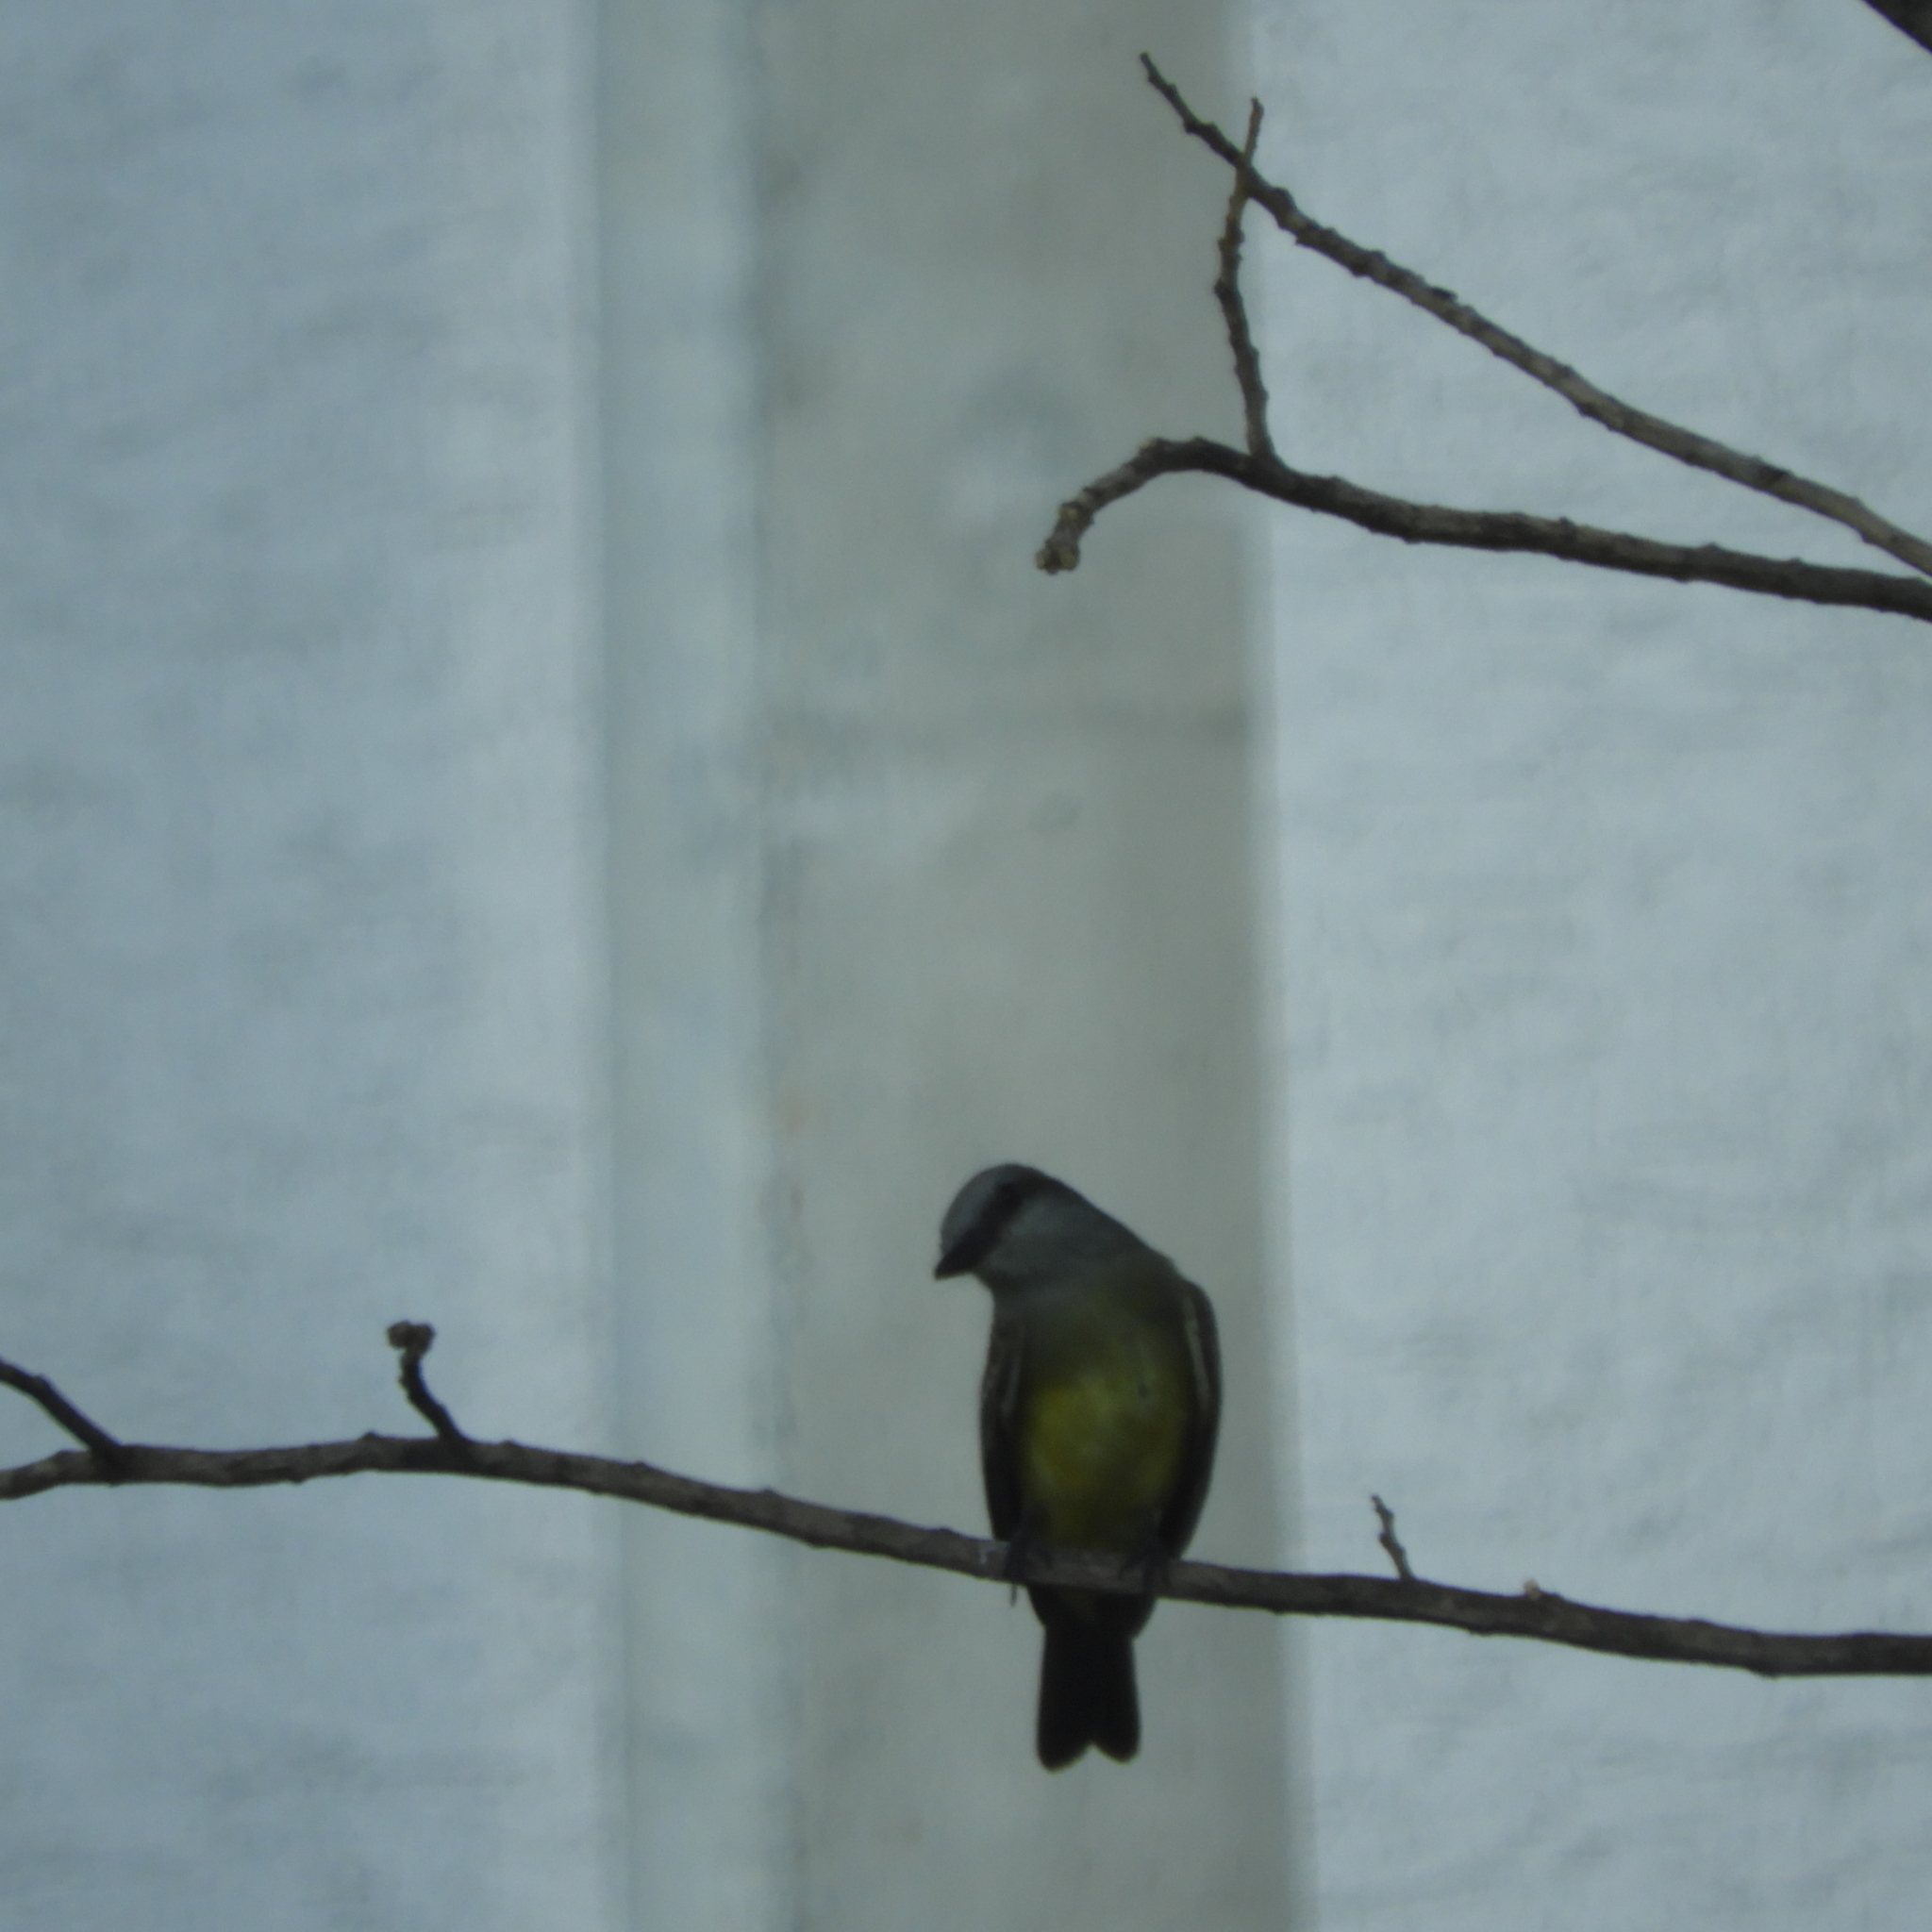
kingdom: Animalia
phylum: Chordata
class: Aves
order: Passeriformes
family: Tyrannidae
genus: Tyrannus
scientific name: Tyrannus melancholicus
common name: Tropical kingbird
